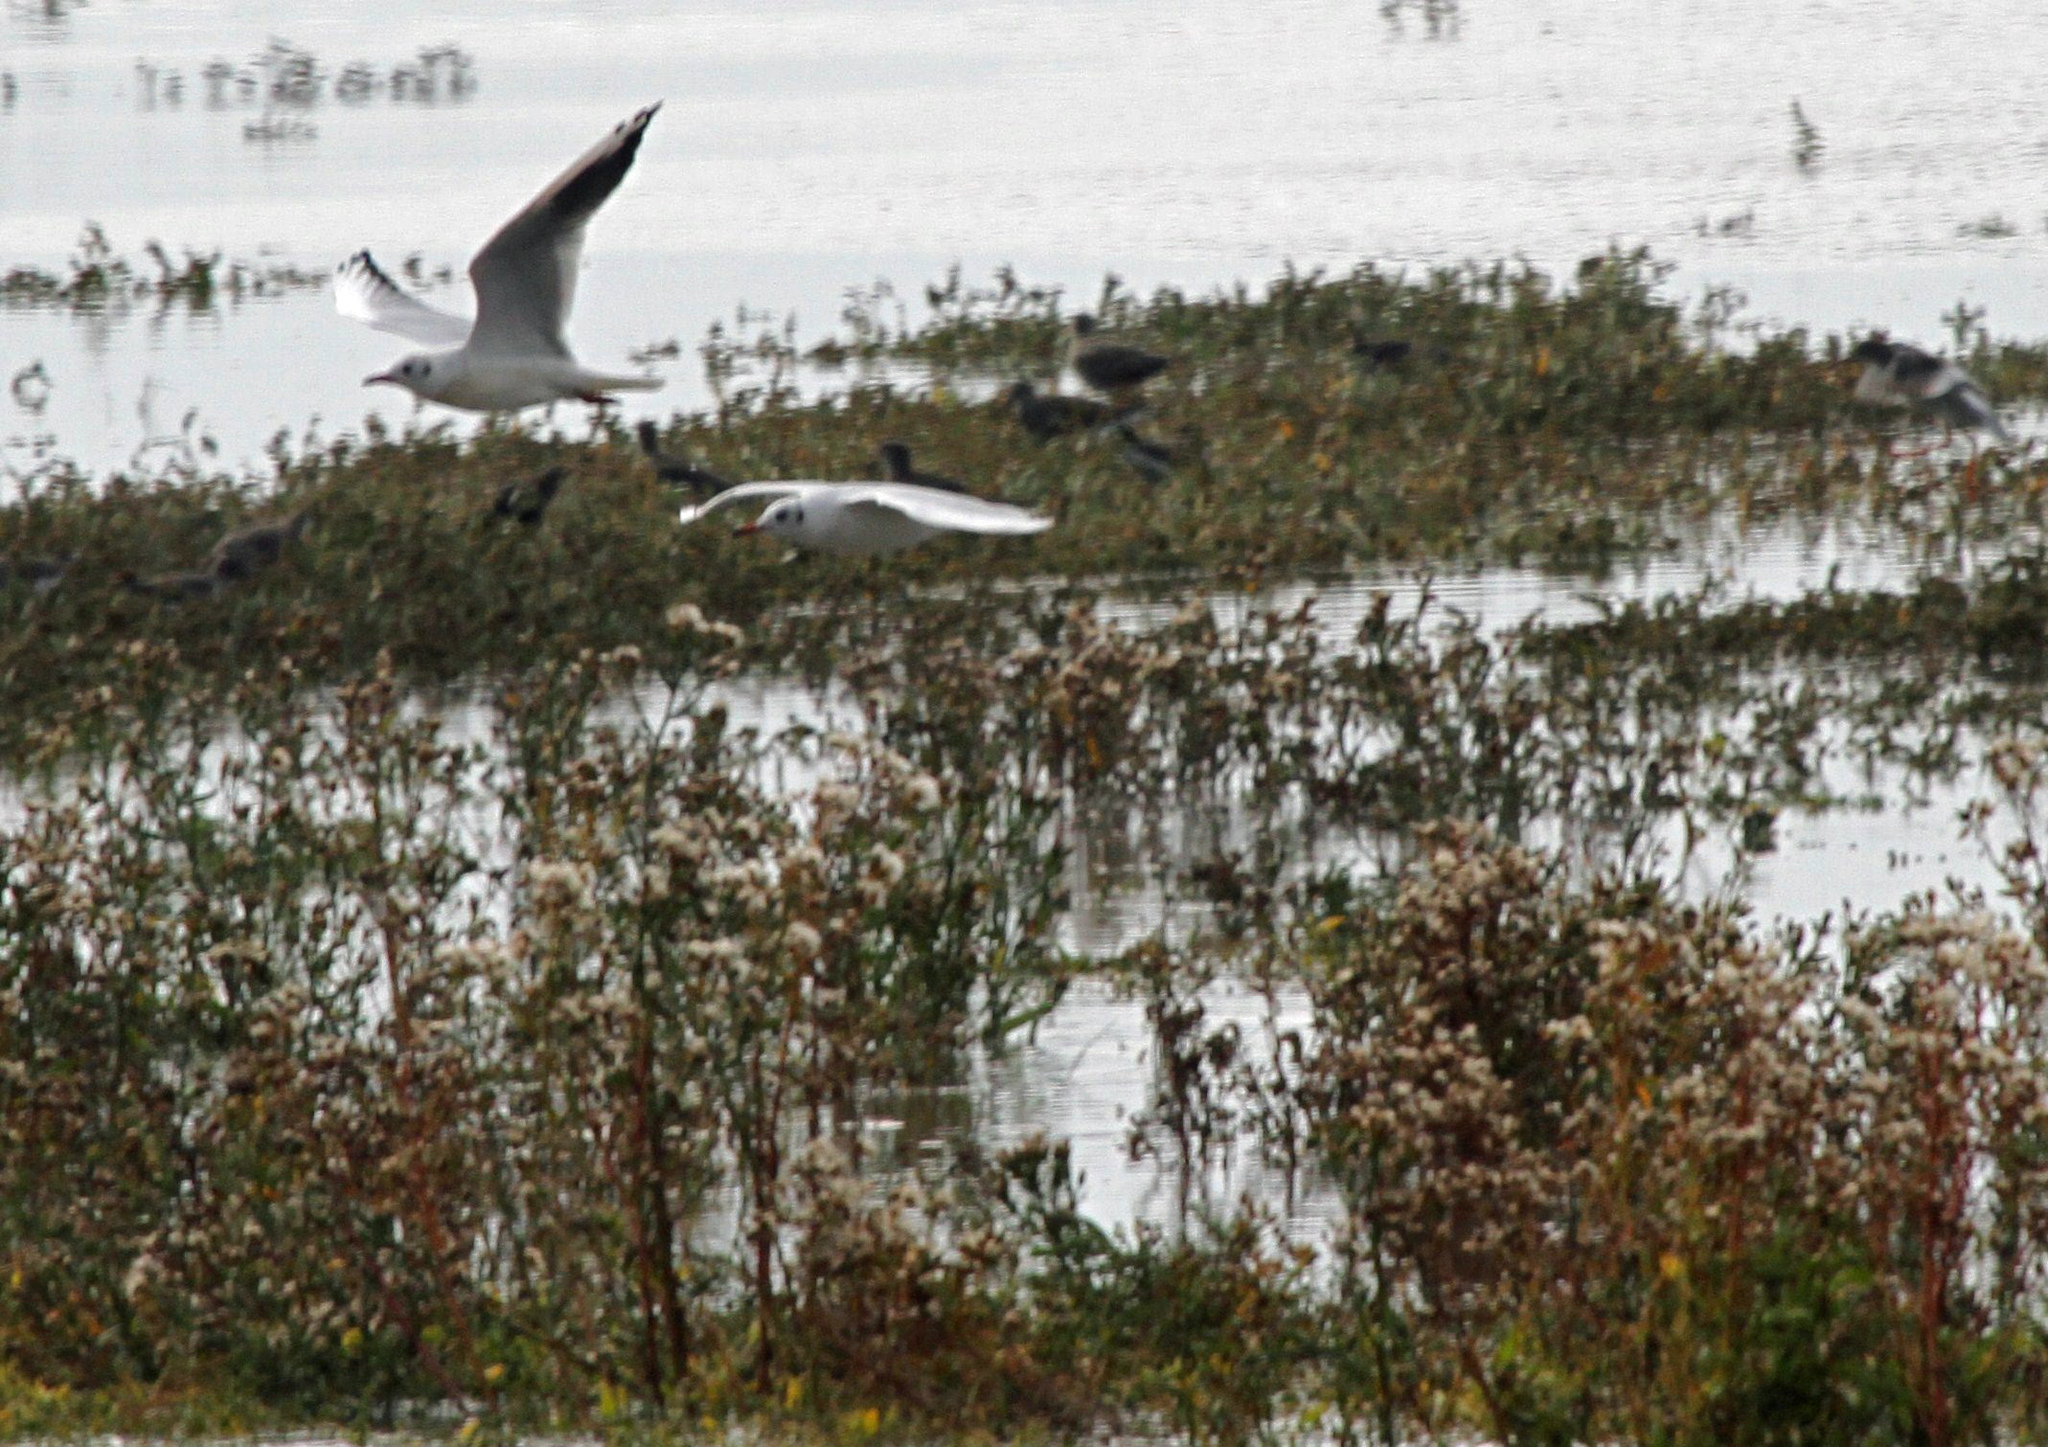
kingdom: Animalia
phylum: Chordata
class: Aves
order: Charadriiformes
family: Laridae
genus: Chroicocephalus
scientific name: Chroicocephalus ridibundus
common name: Black-headed gull
